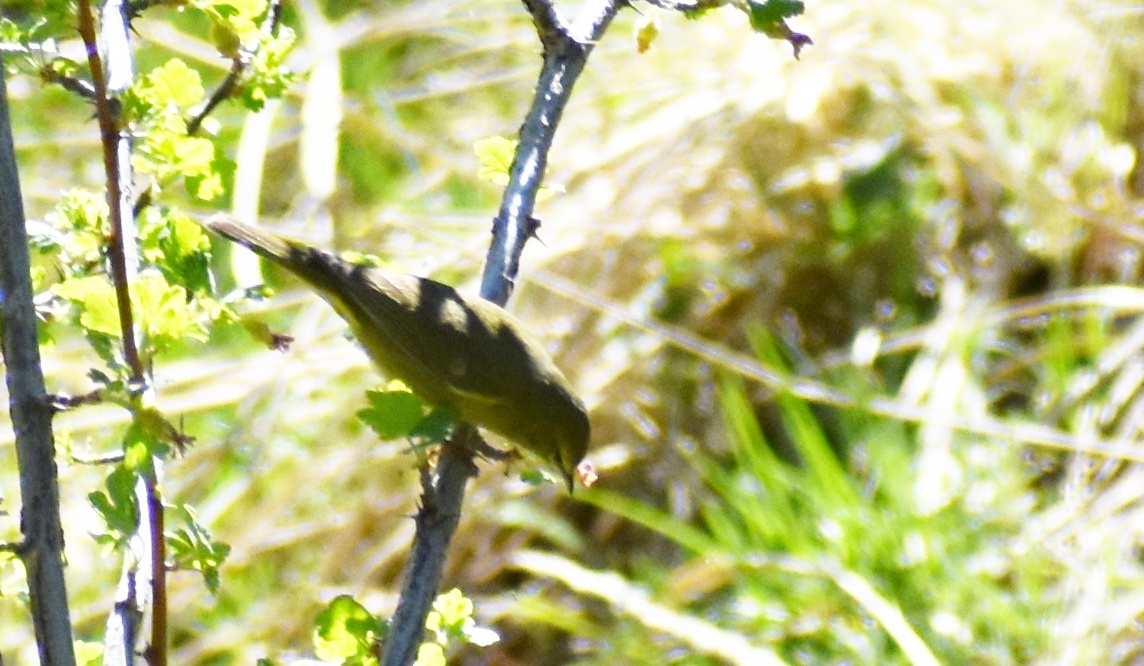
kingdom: Animalia
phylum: Chordata
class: Aves
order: Passeriformes
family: Parulidae
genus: Leiothlypis
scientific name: Leiothlypis celata
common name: Orange-crowned warbler
